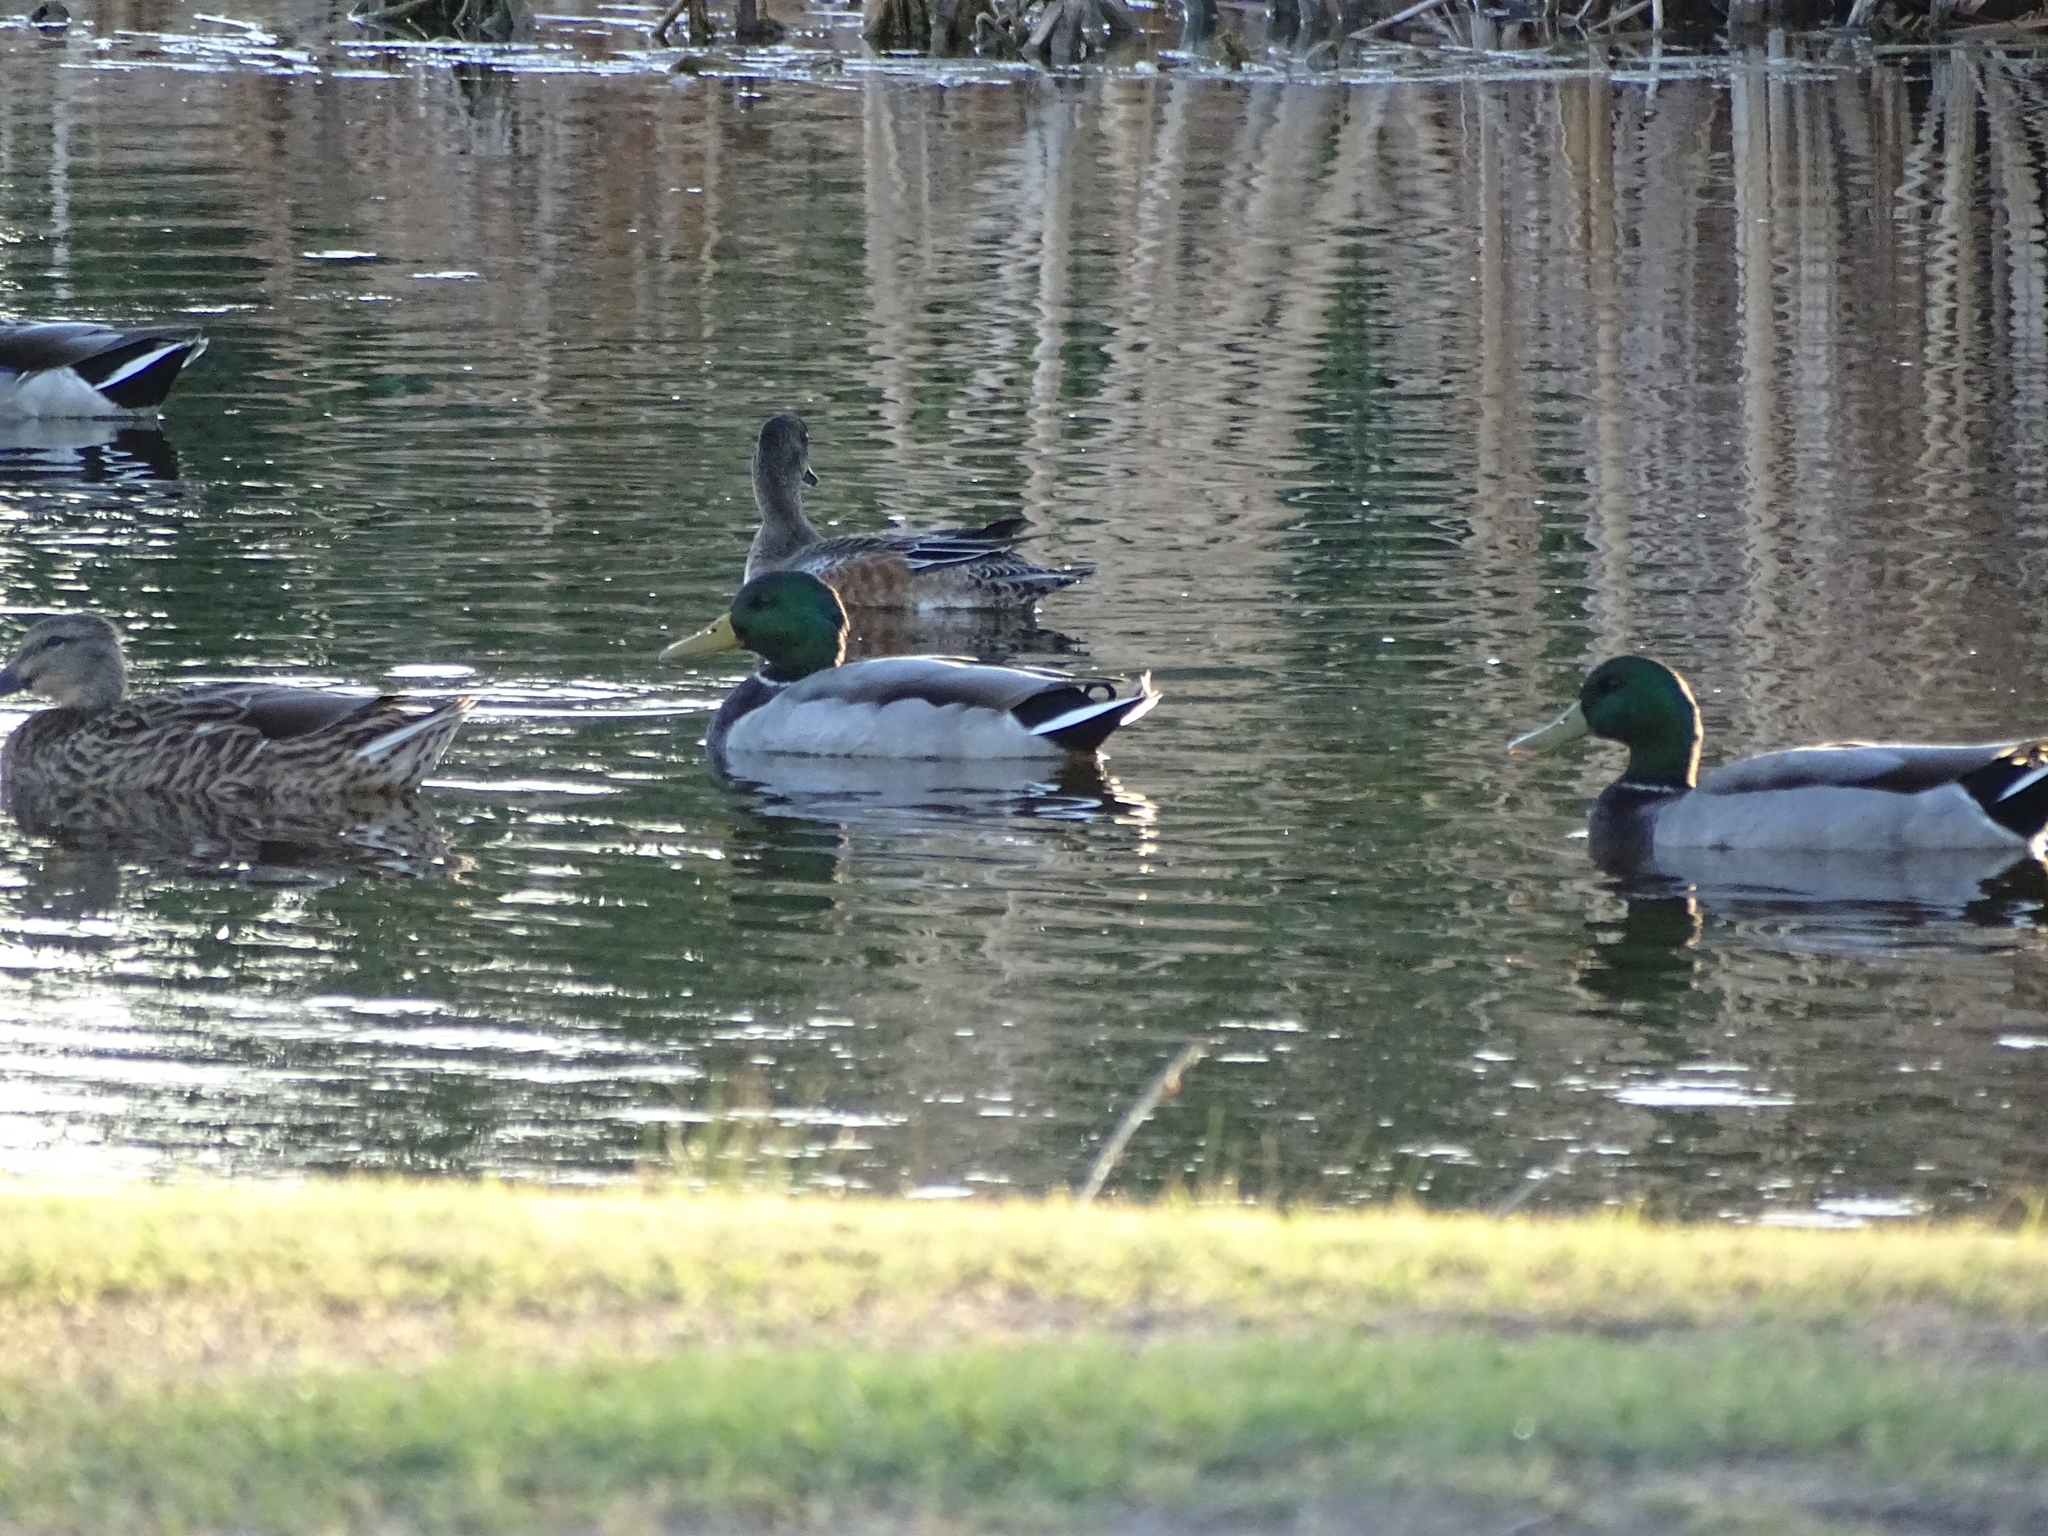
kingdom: Animalia
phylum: Chordata
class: Aves
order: Anseriformes
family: Anatidae
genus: Anas
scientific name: Anas platyrhynchos
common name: Mallard
